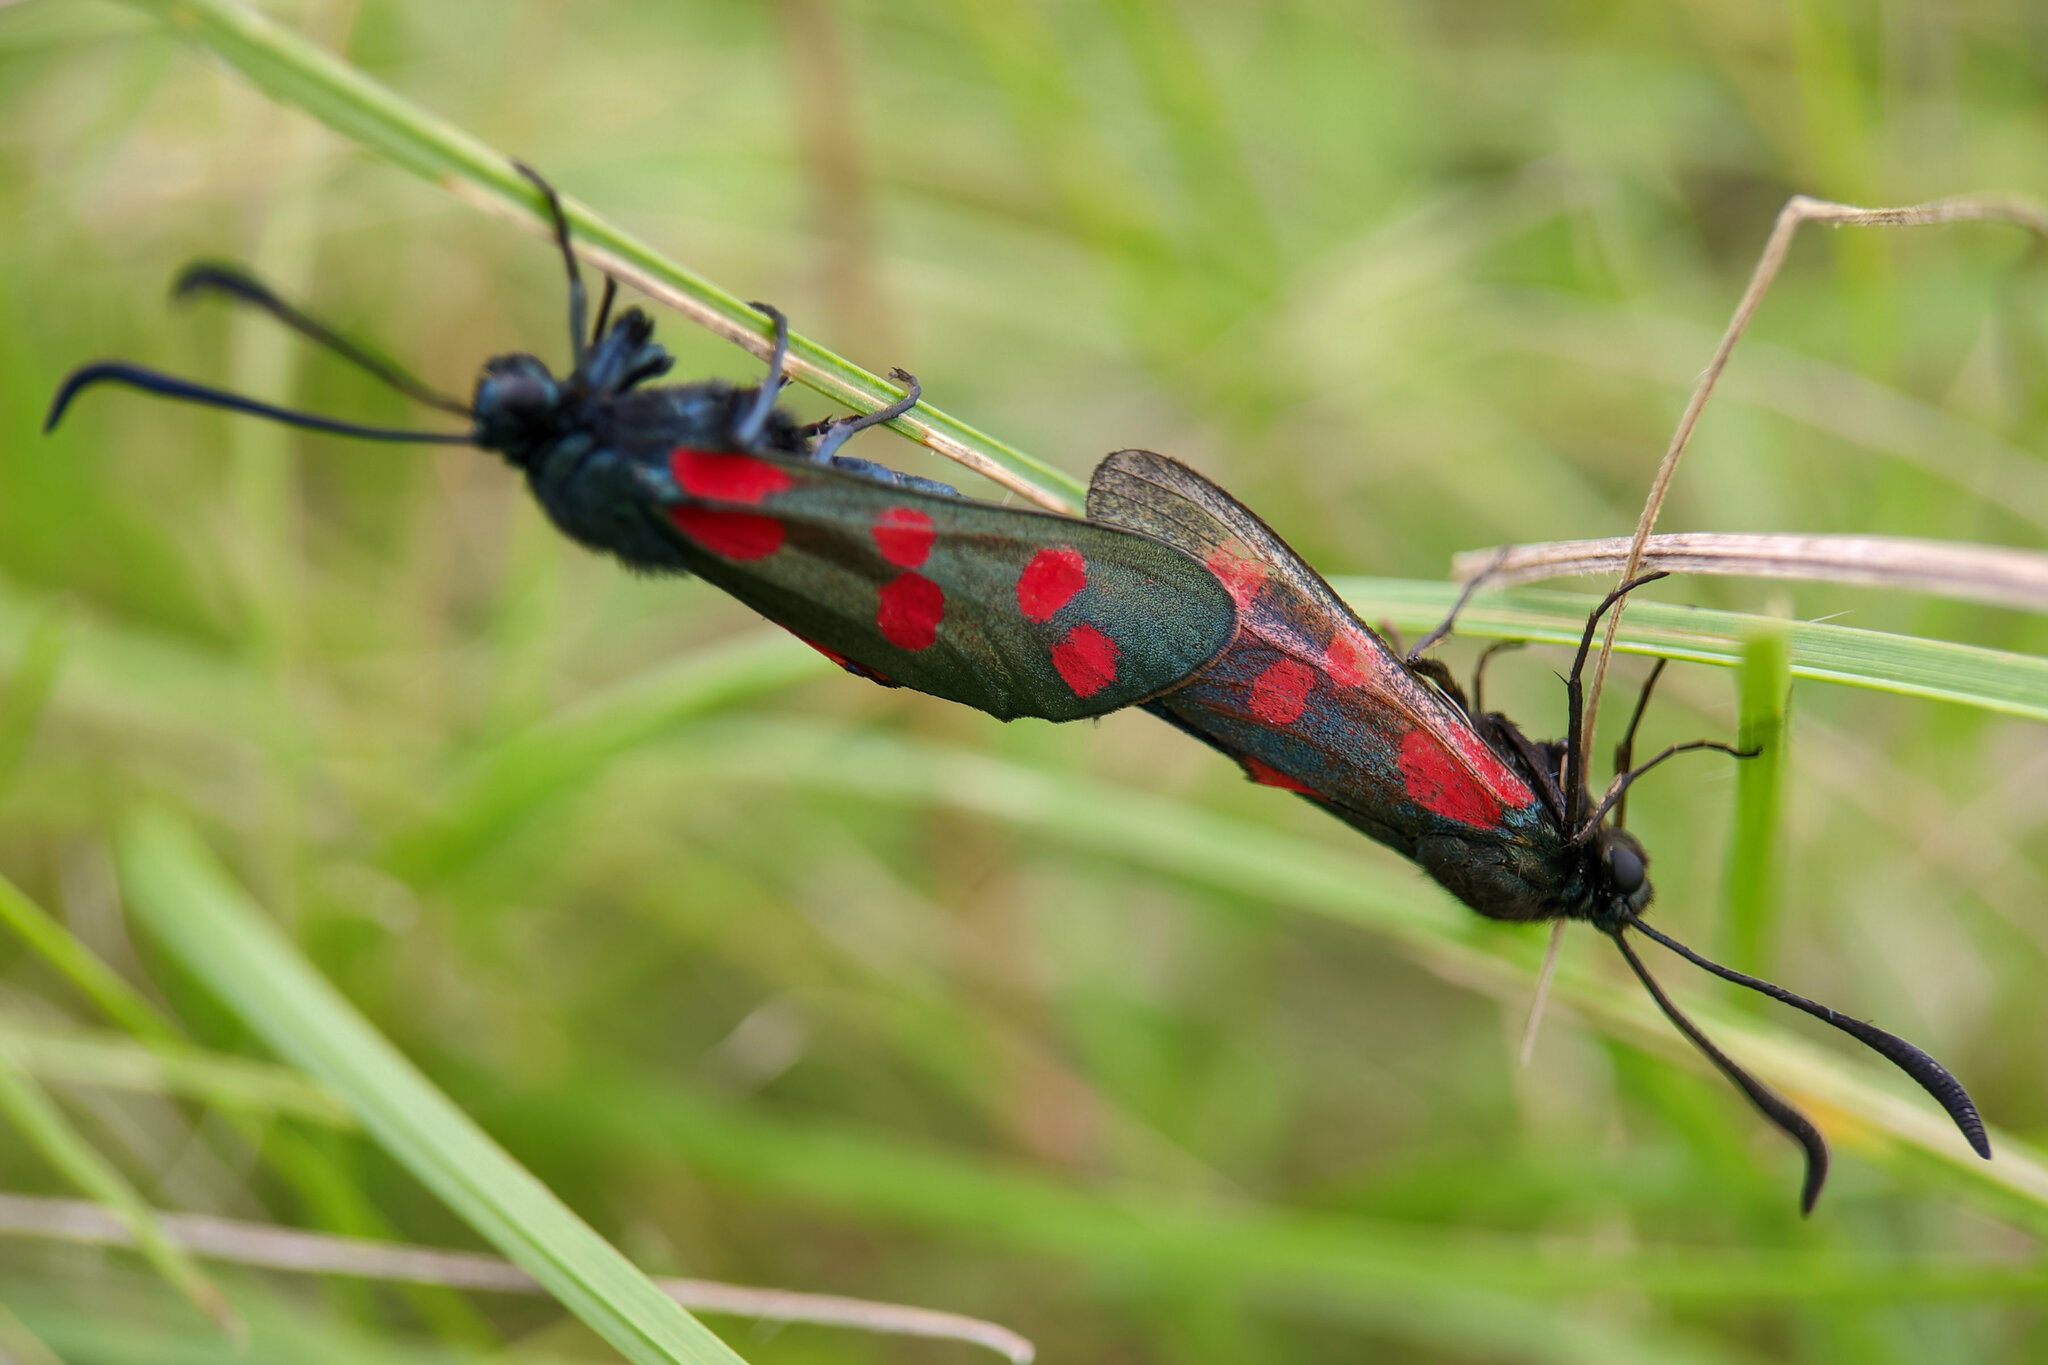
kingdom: Animalia
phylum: Arthropoda
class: Insecta
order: Lepidoptera
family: Zygaenidae
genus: Zygaena
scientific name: Zygaena filipendulae
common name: Six-spot burnet
